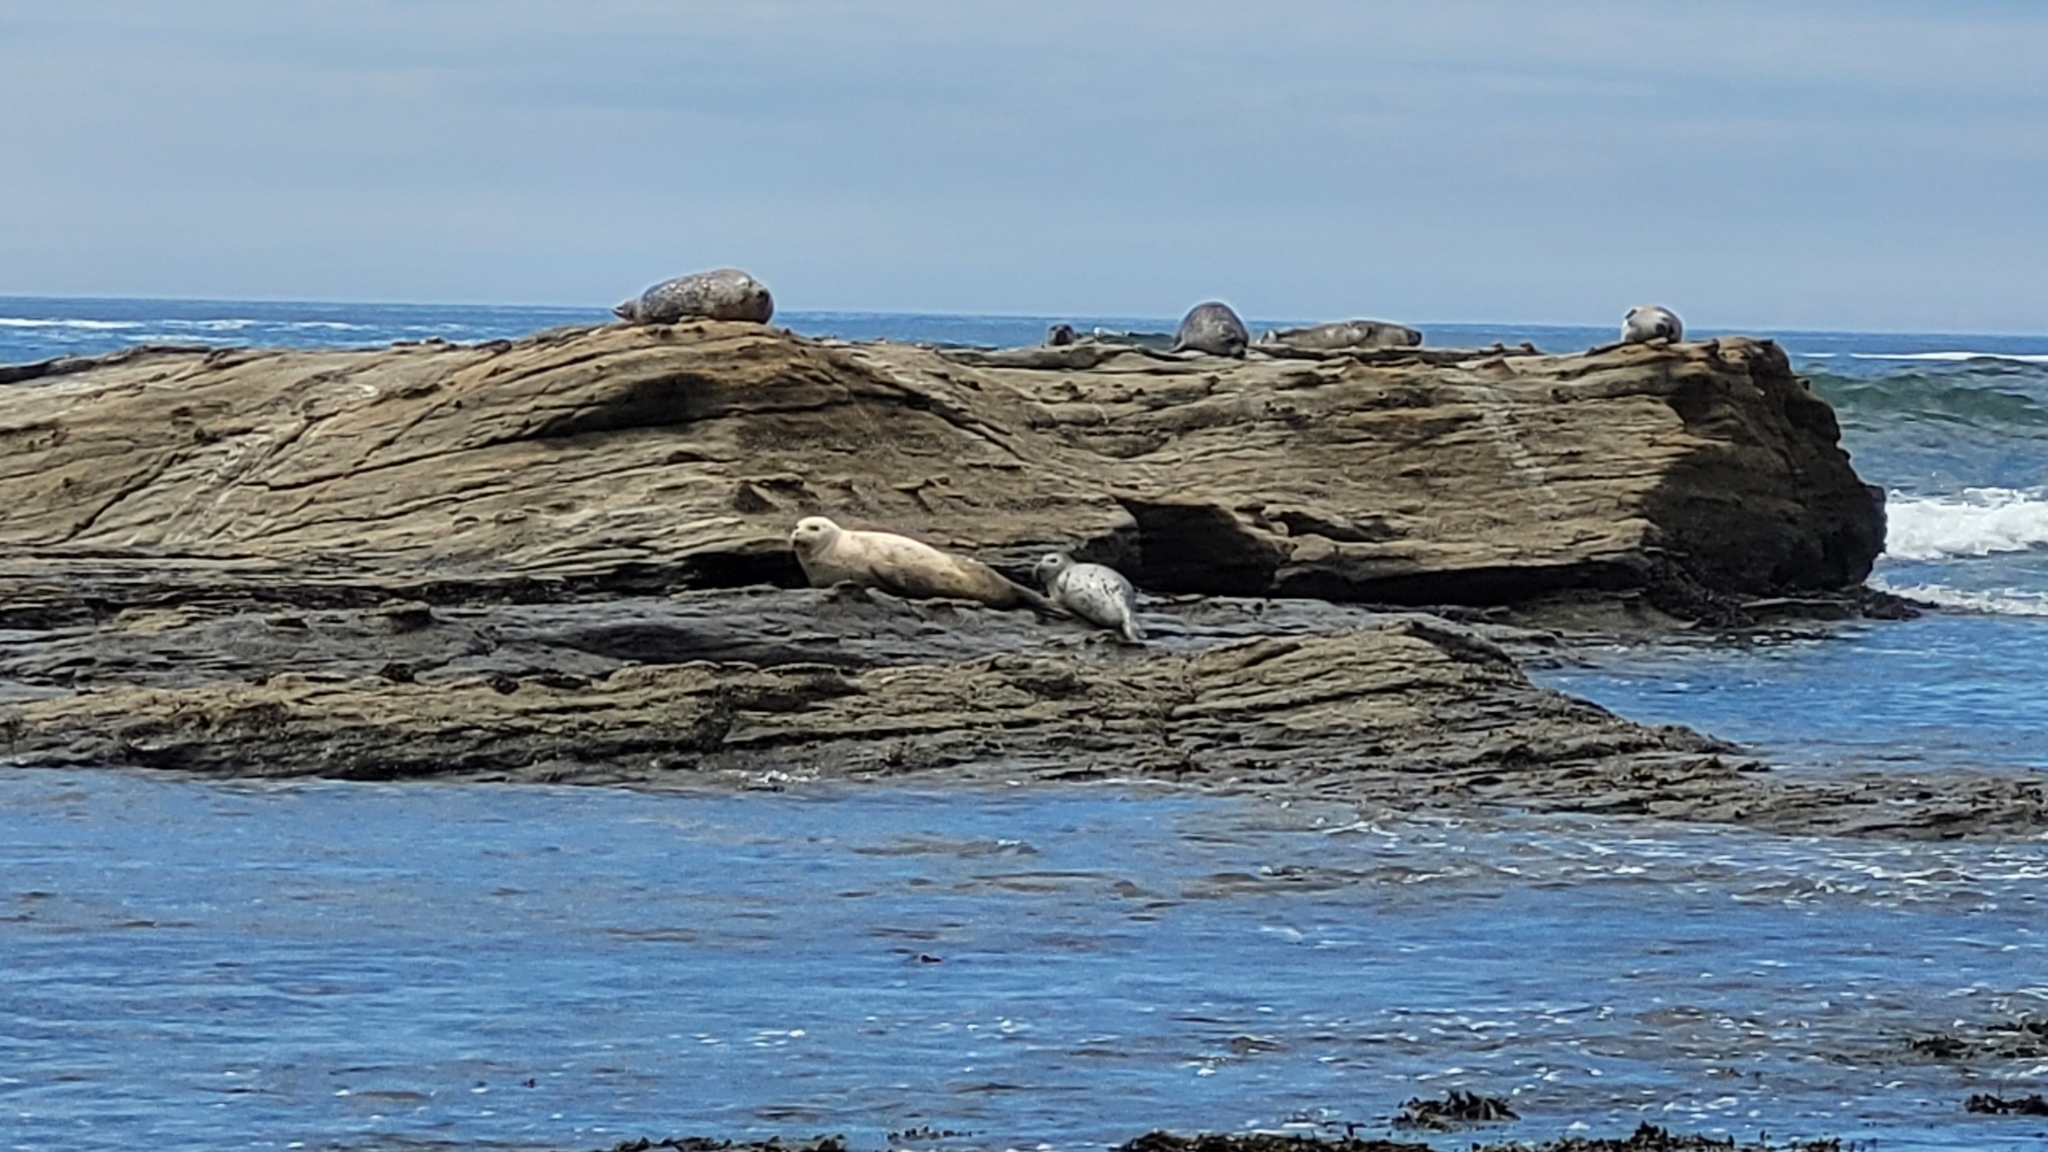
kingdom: Animalia
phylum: Chordata
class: Mammalia
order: Carnivora
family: Phocidae
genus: Phoca
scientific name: Phoca vitulina
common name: Harbor seal
